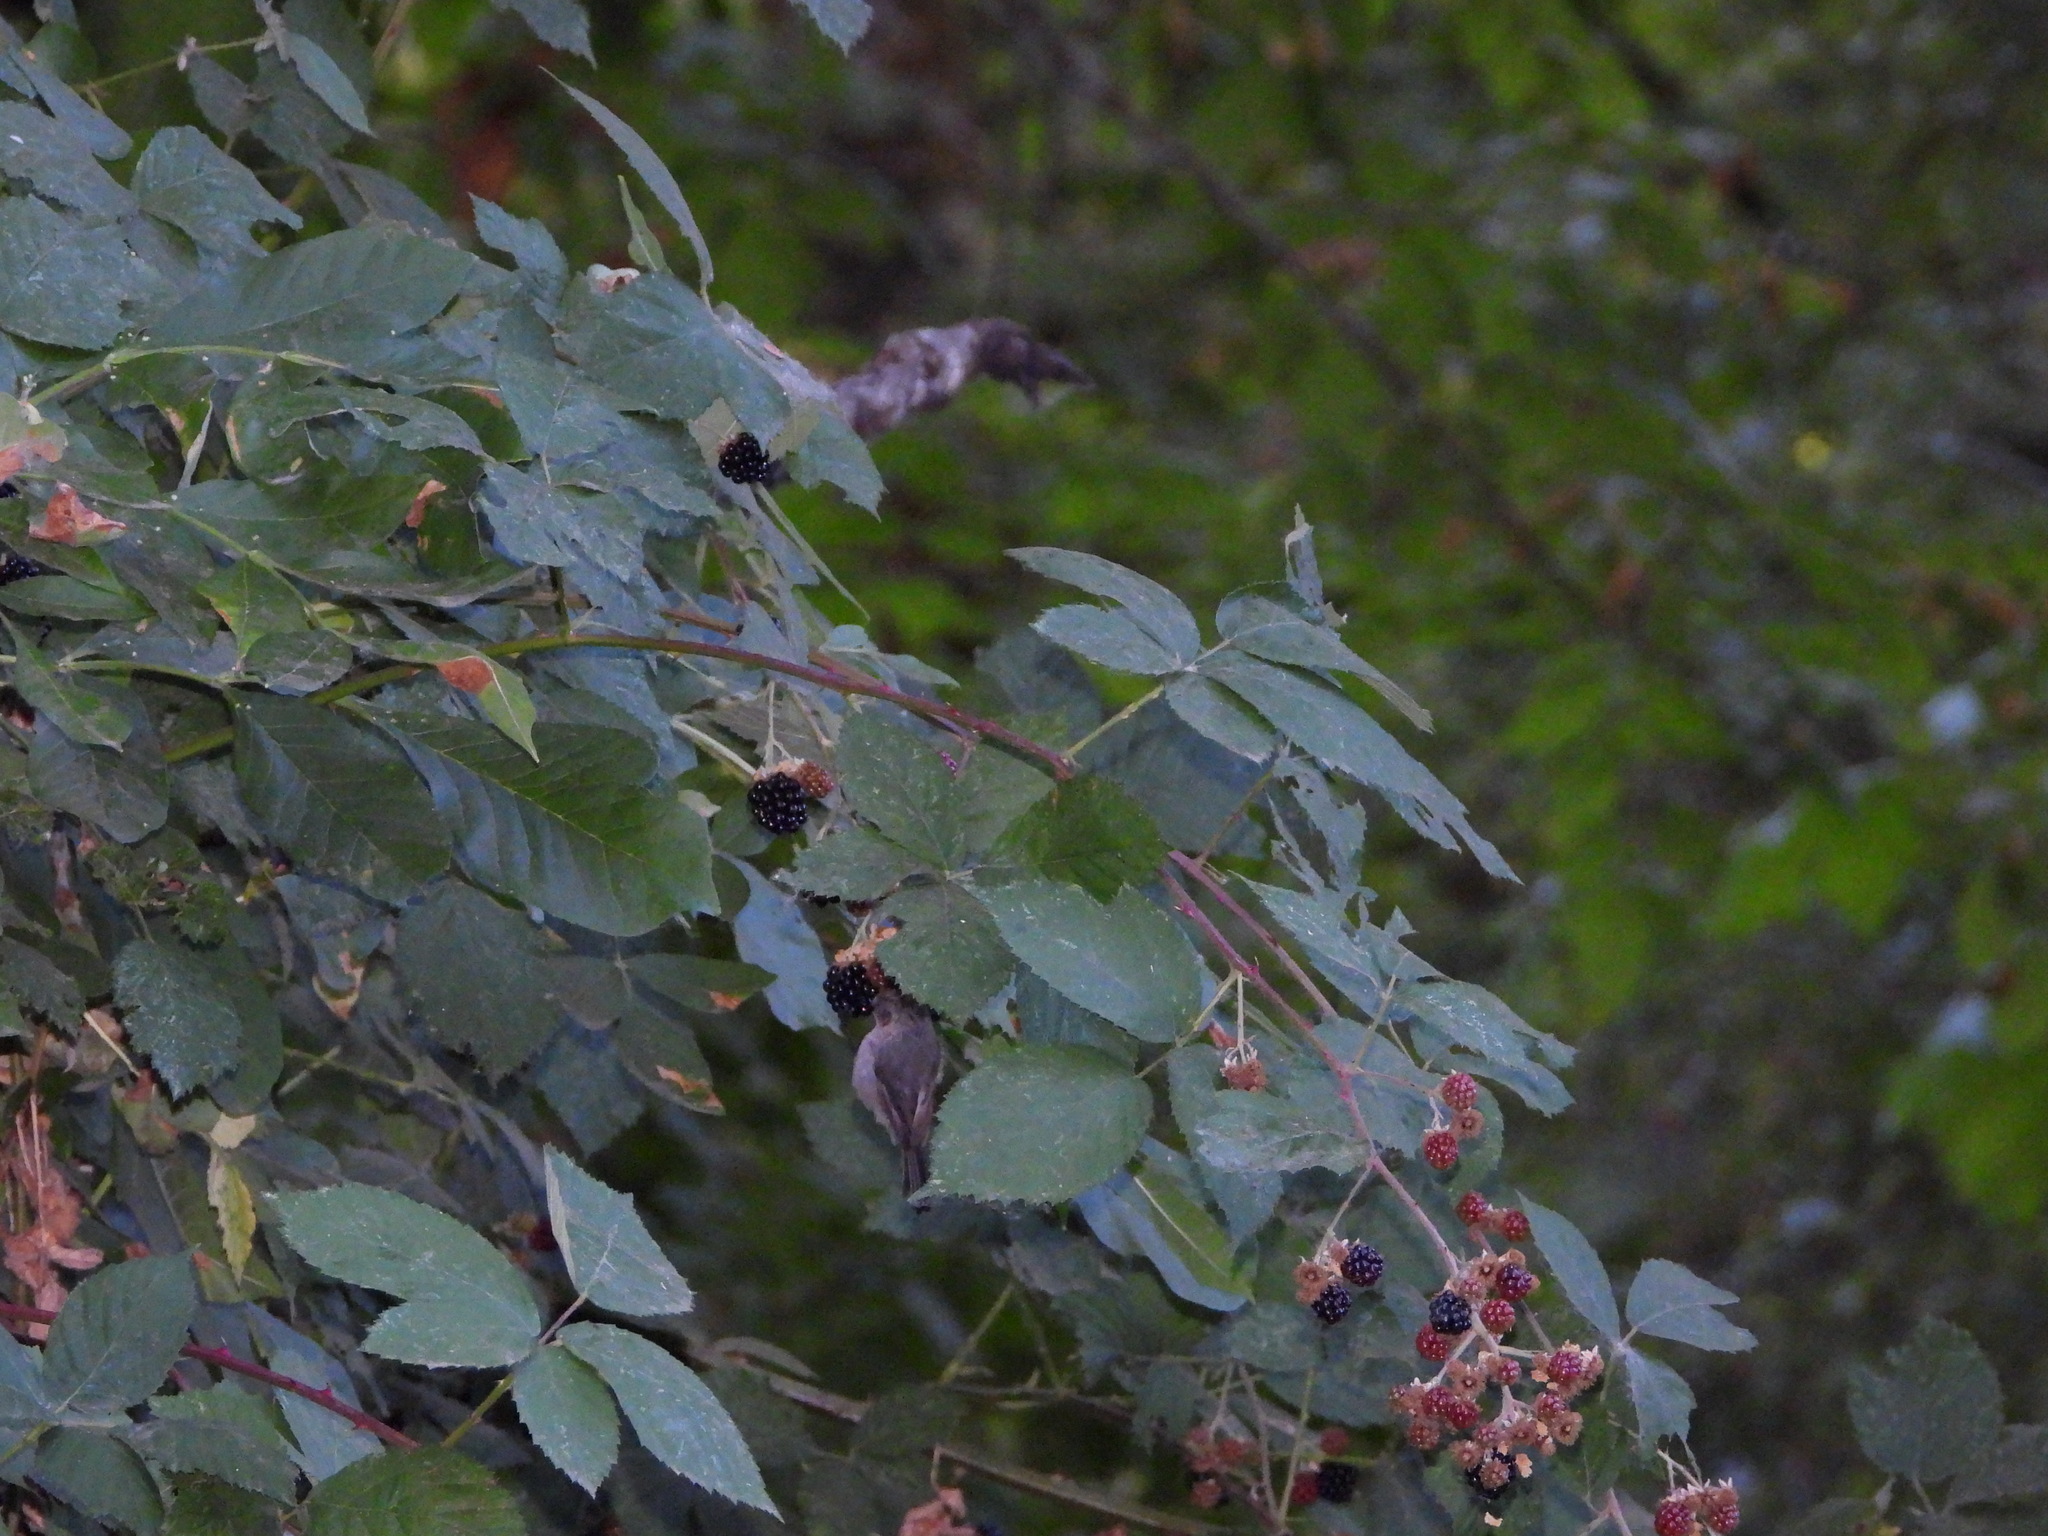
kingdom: Animalia
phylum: Chordata
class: Aves
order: Passeriformes
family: Aegithalidae
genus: Psaltriparus
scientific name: Psaltriparus minimus
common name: American bushtit
